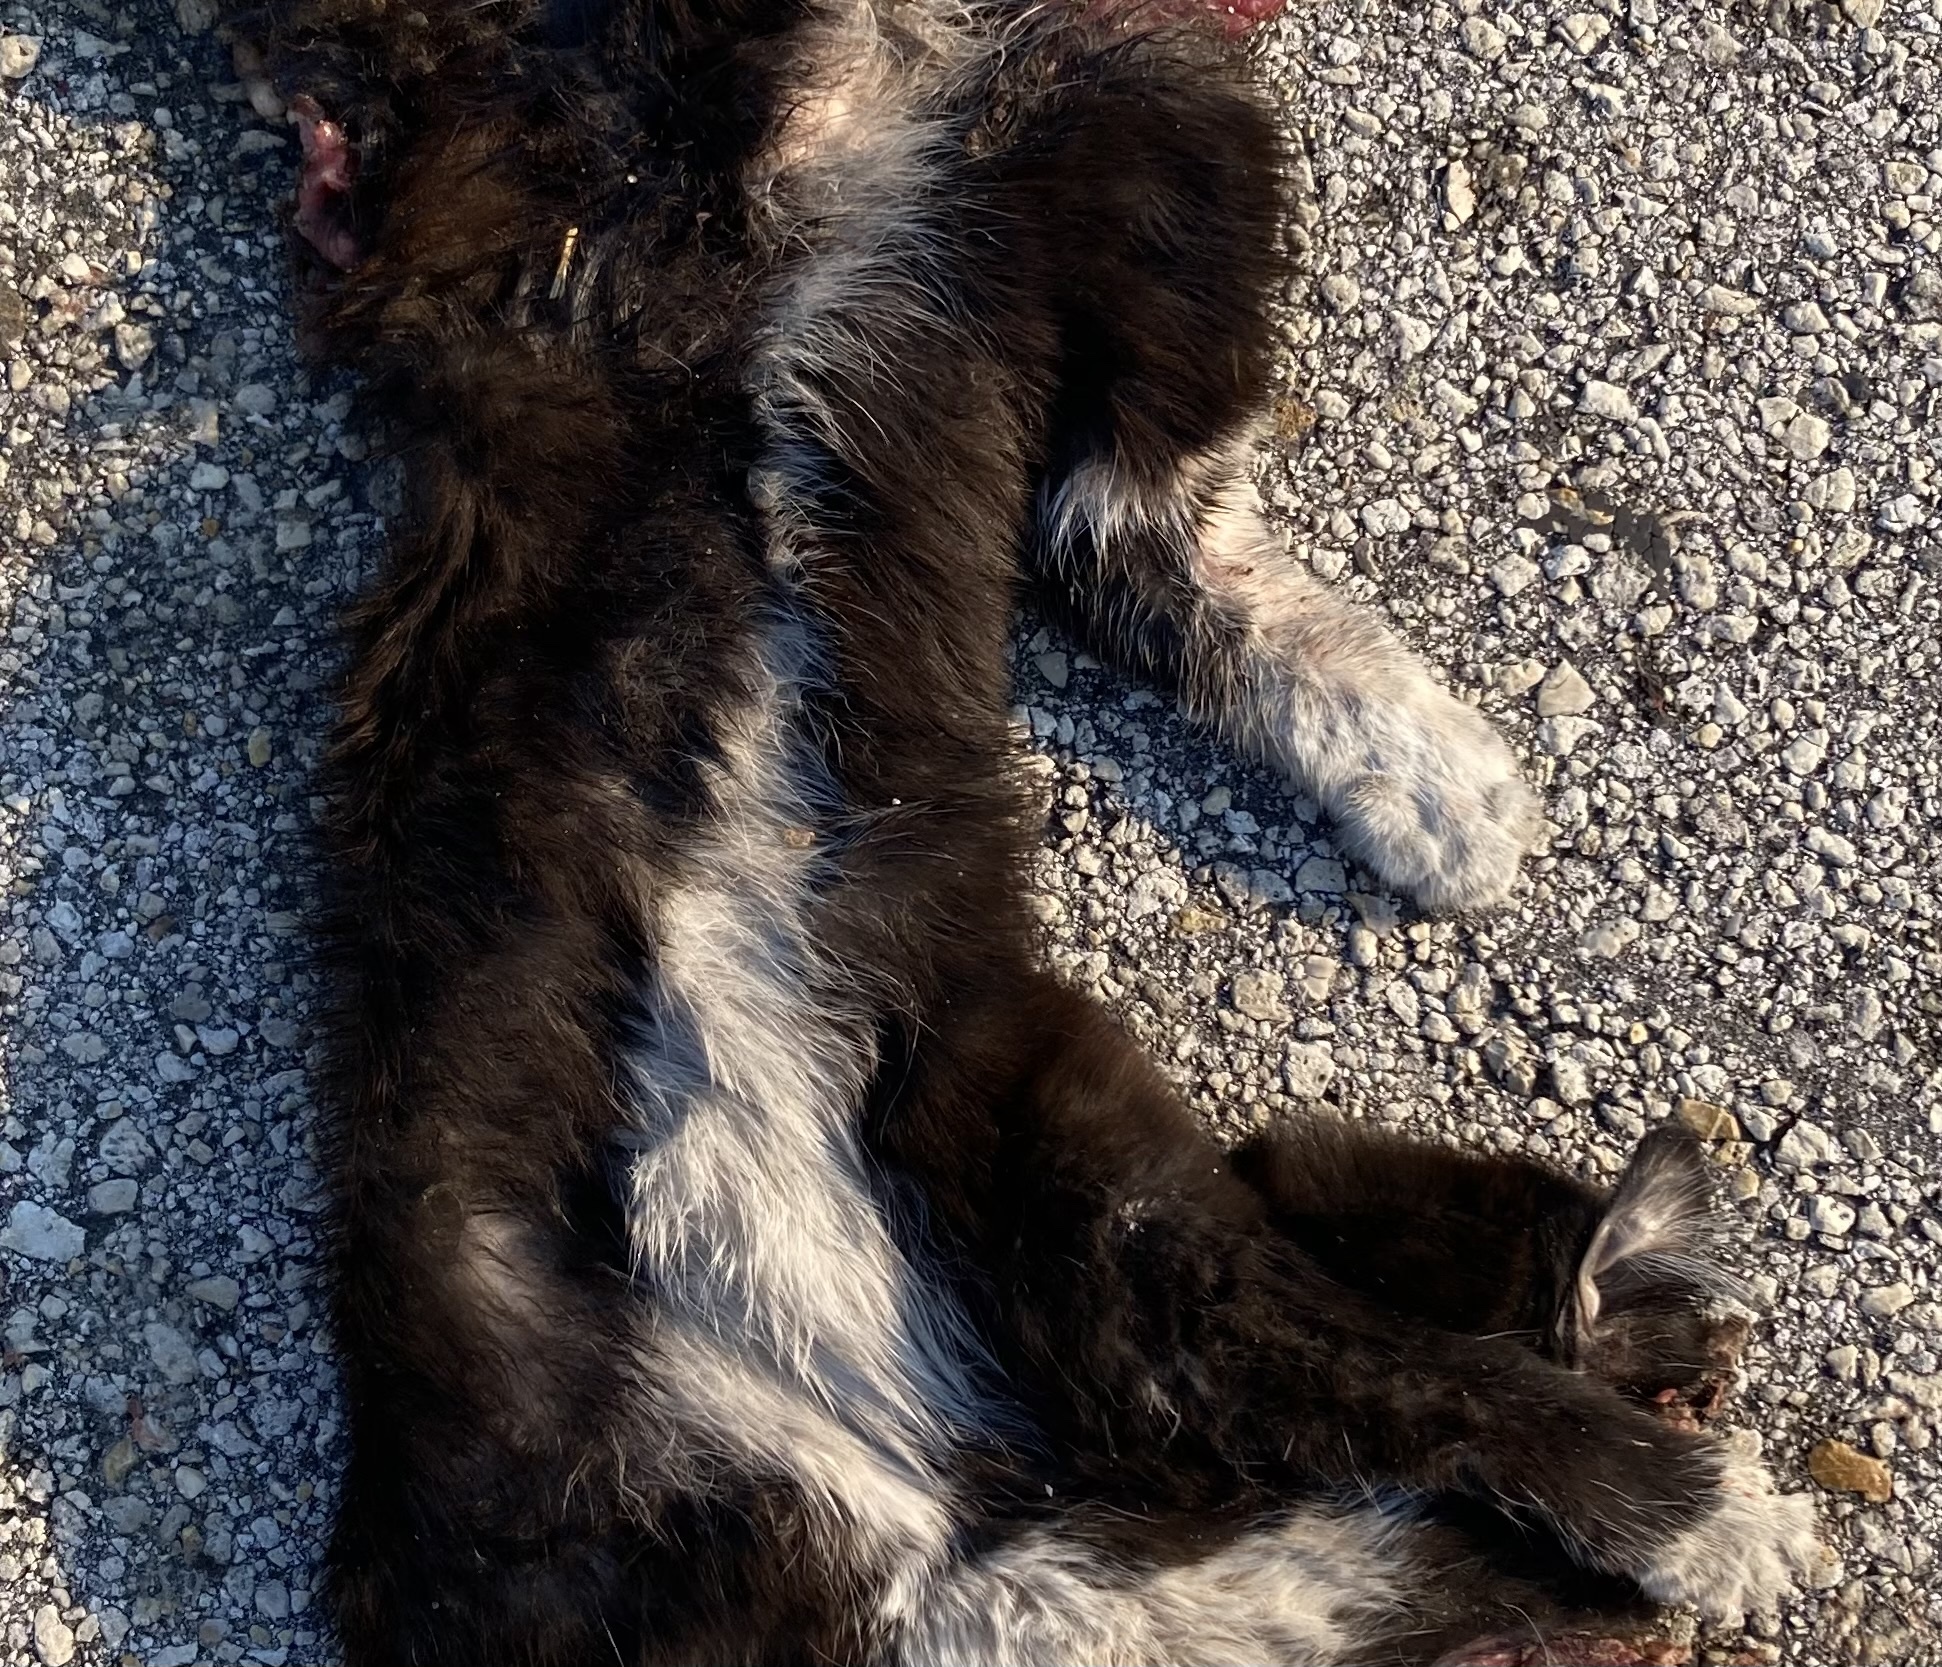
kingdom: Animalia
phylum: Chordata
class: Mammalia
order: Carnivora
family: Felidae
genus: Felis
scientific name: Felis catus
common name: Domestic cat
